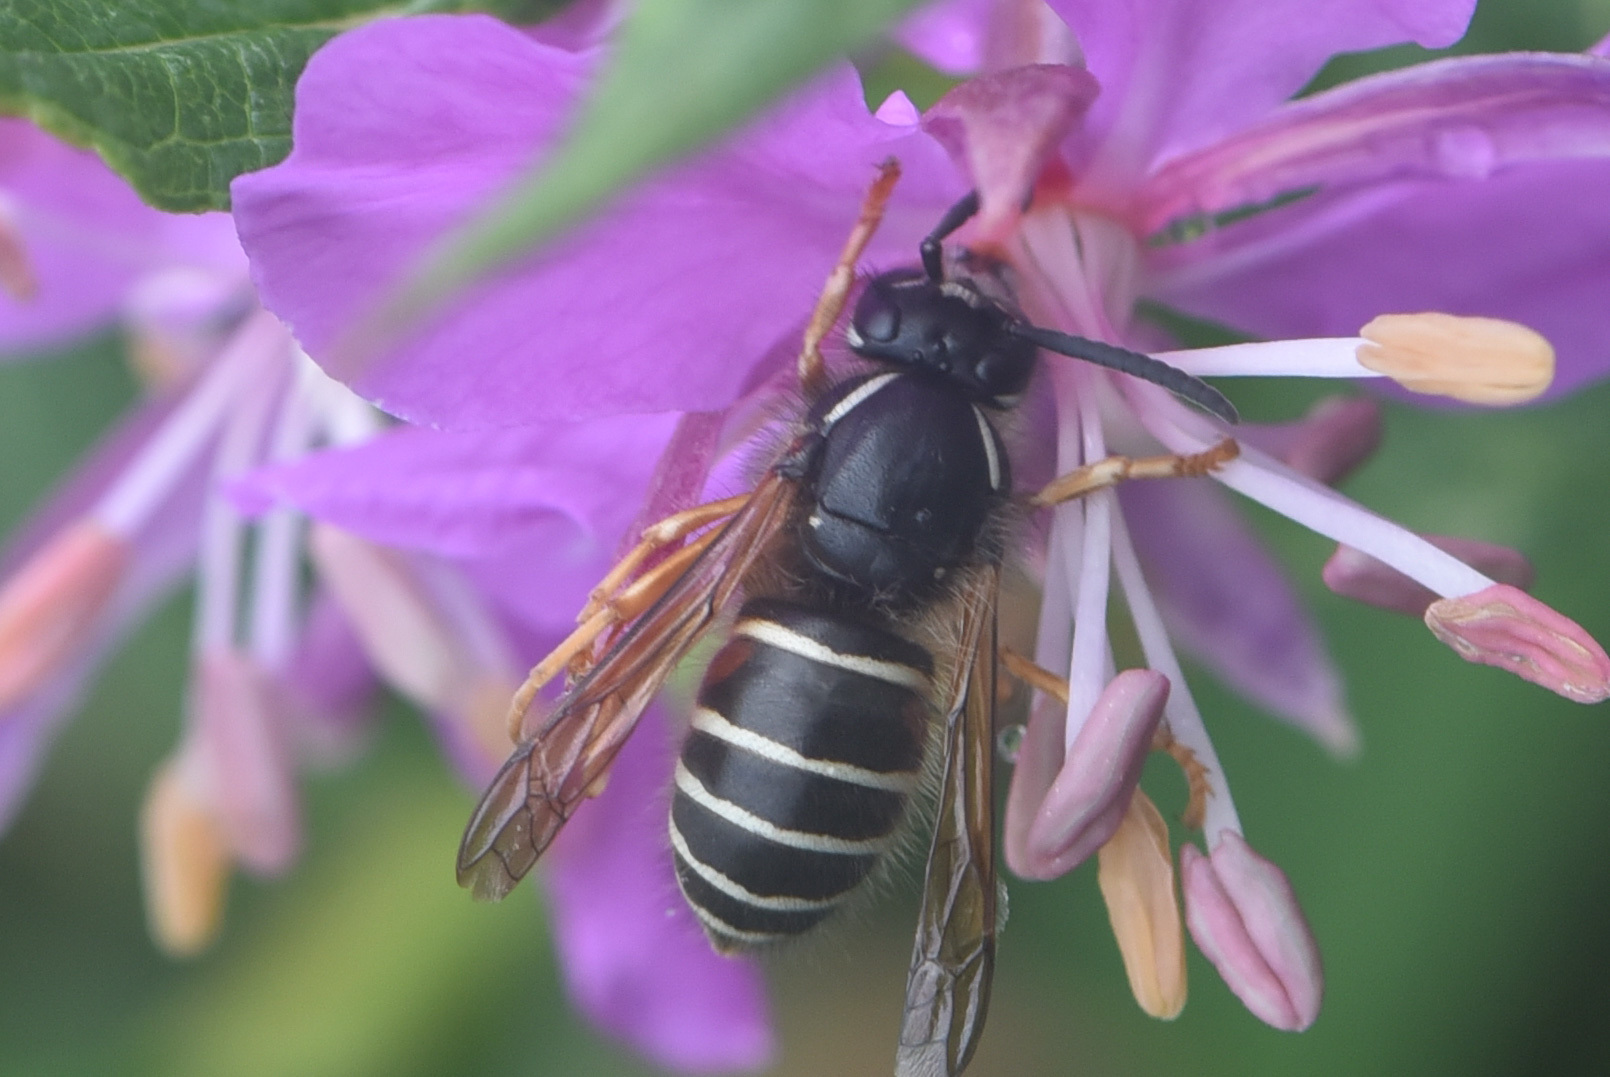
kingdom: Animalia
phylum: Arthropoda
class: Insecta
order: Hymenoptera
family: Vespidae
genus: Dolichovespula
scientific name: Dolichovespula norwegica
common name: Norwegian wasp
